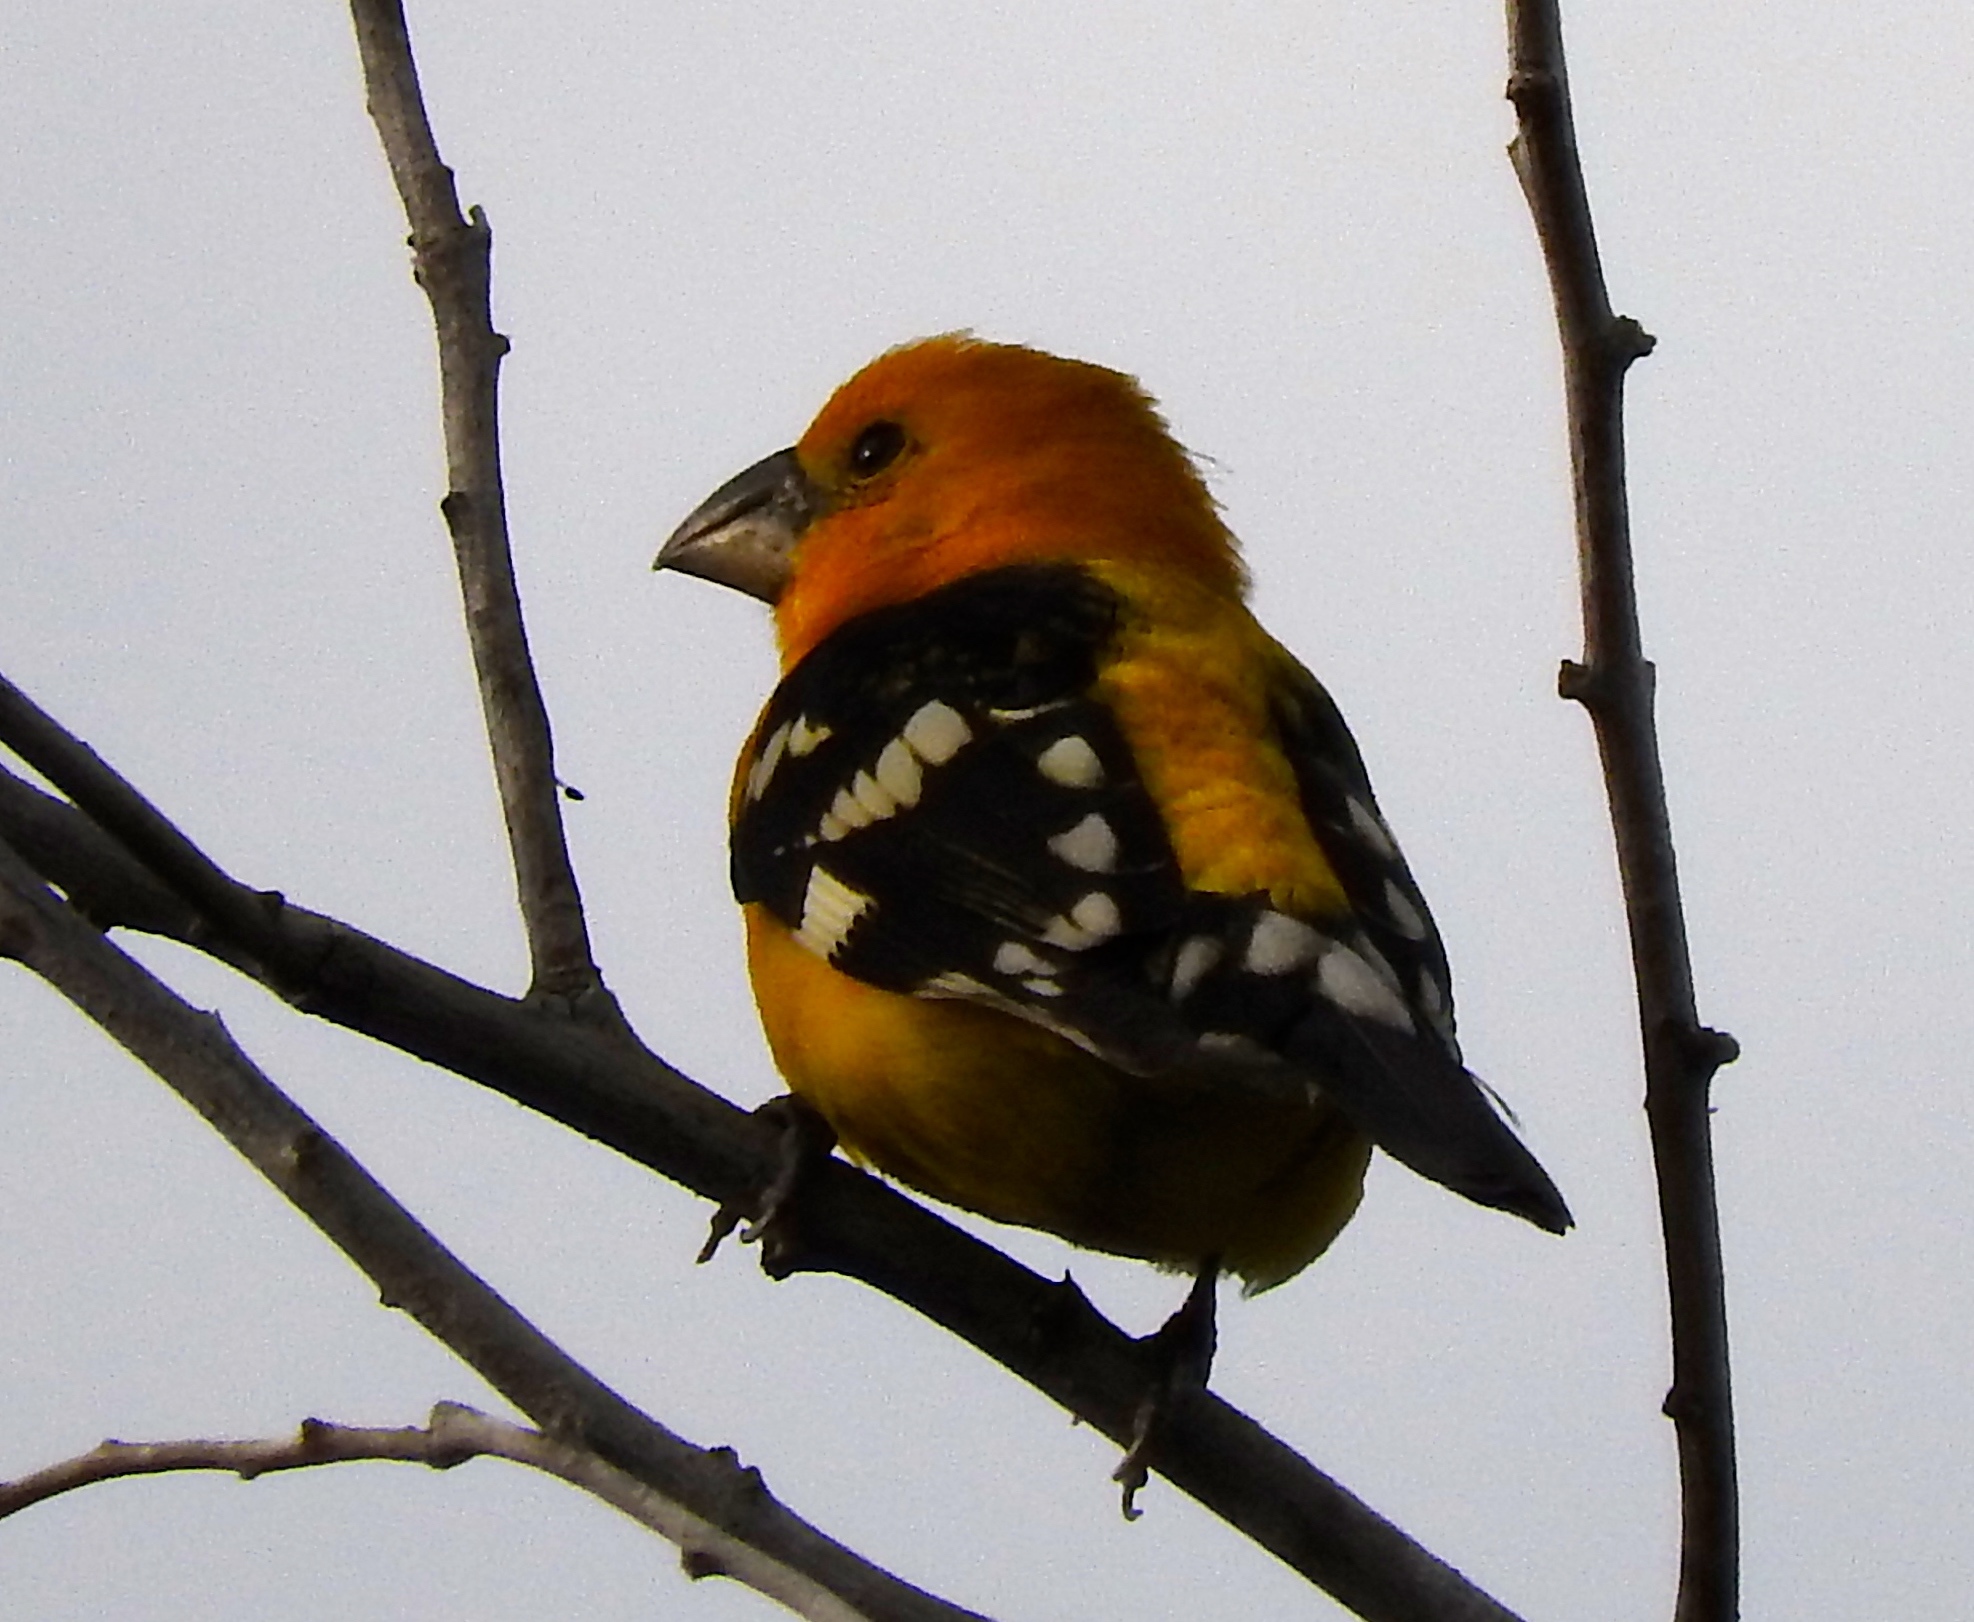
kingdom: Animalia
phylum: Chordata
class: Aves
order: Passeriformes
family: Cardinalidae
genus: Pheucticus
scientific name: Pheucticus chrysopeplus
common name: Yellow grosbeak
